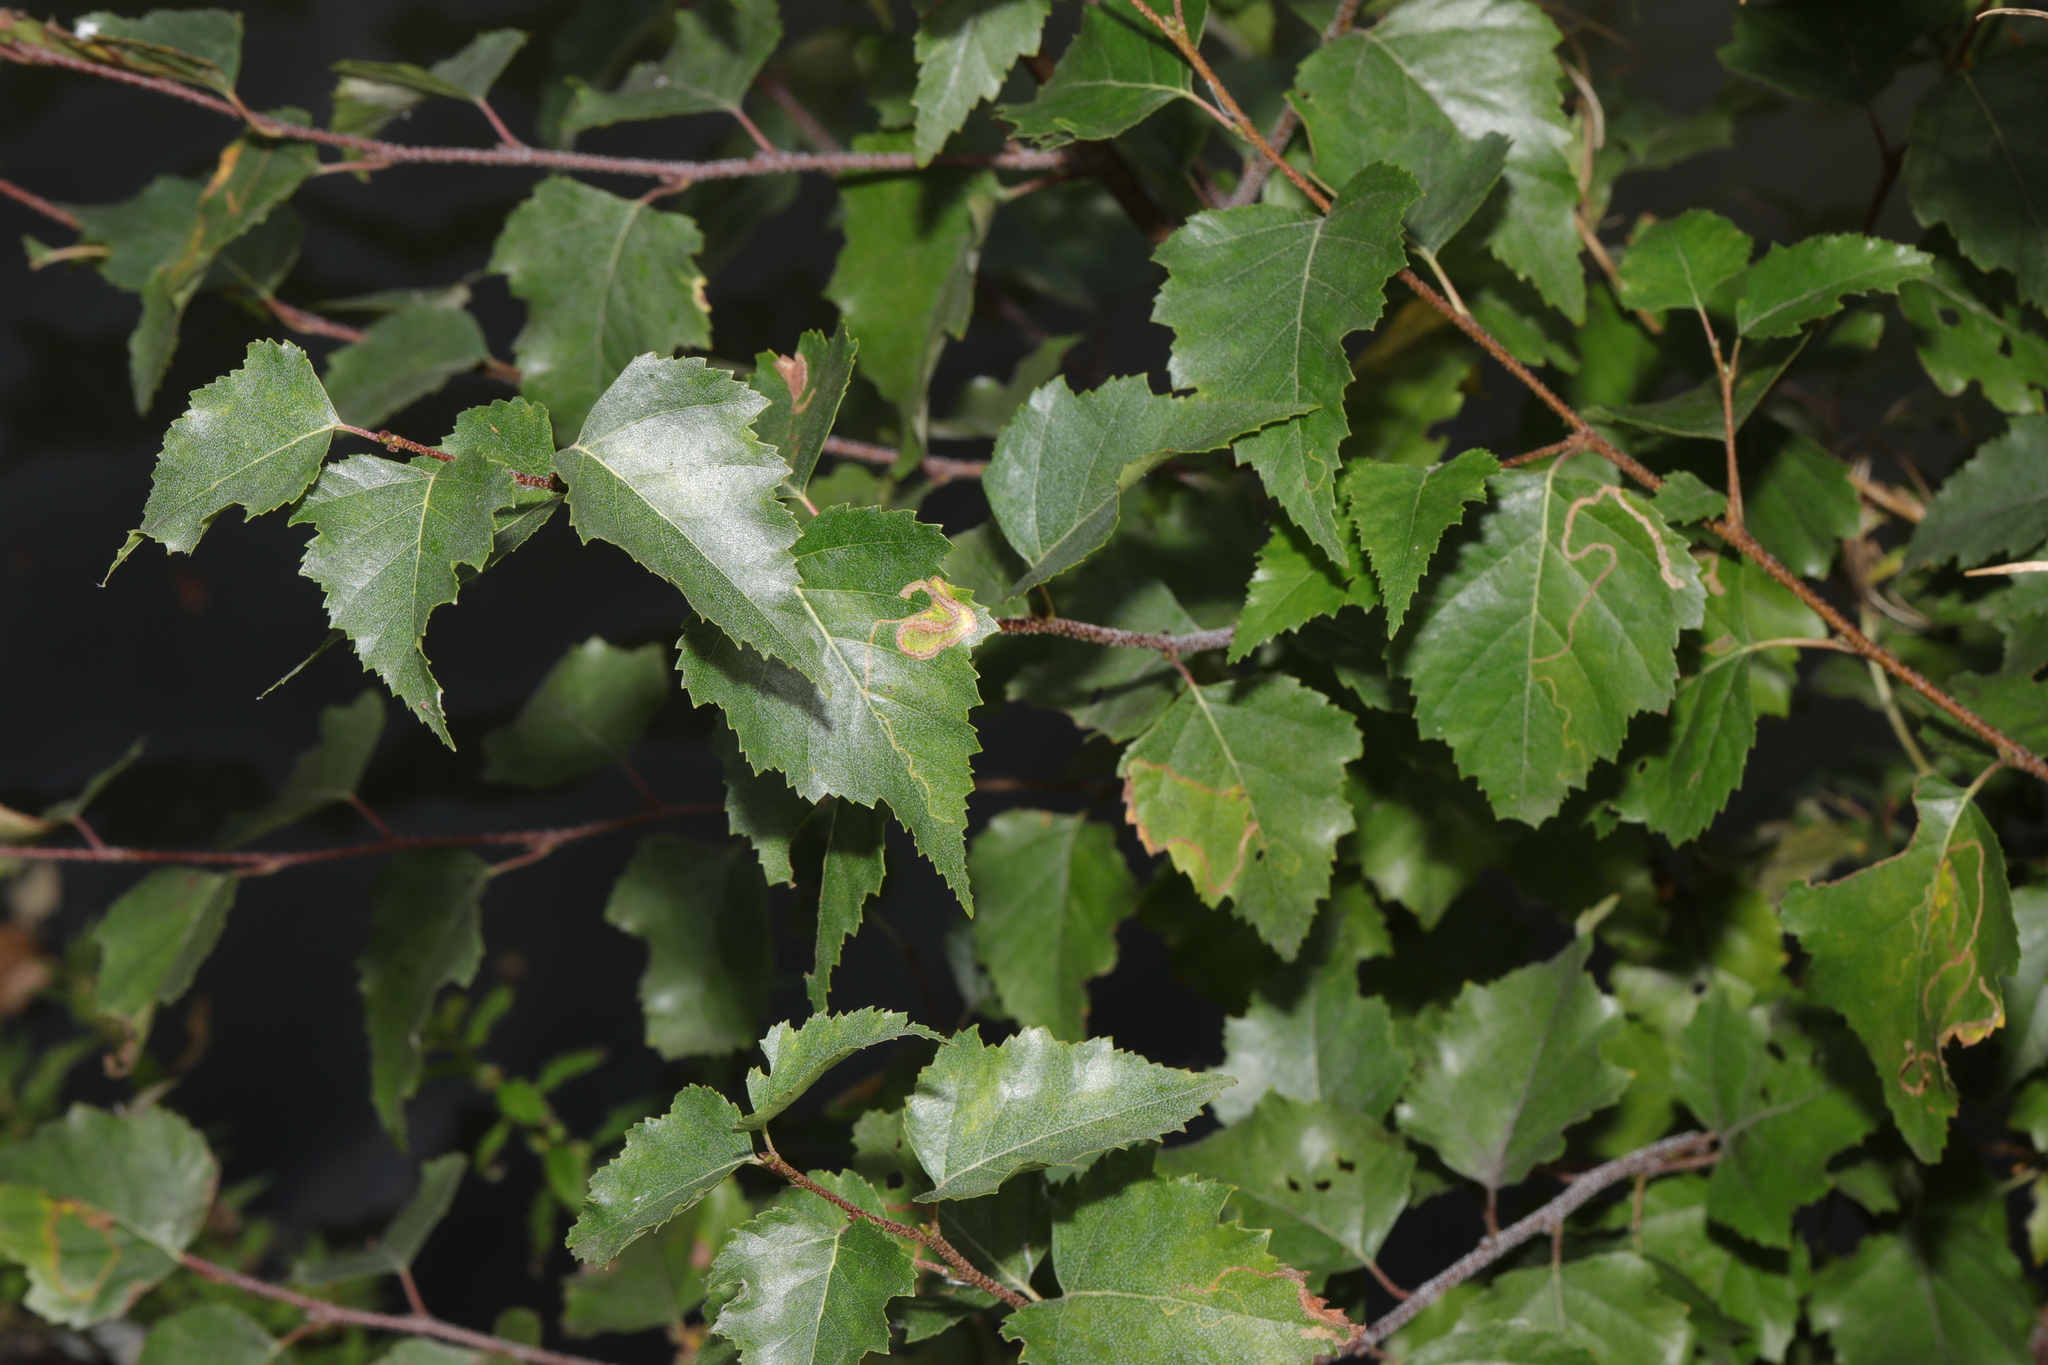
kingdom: Plantae
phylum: Tracheophyta
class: Magnoliopsida
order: Fagales
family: Betulaceae
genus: Betula
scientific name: Betula pendula
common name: Silver birch
